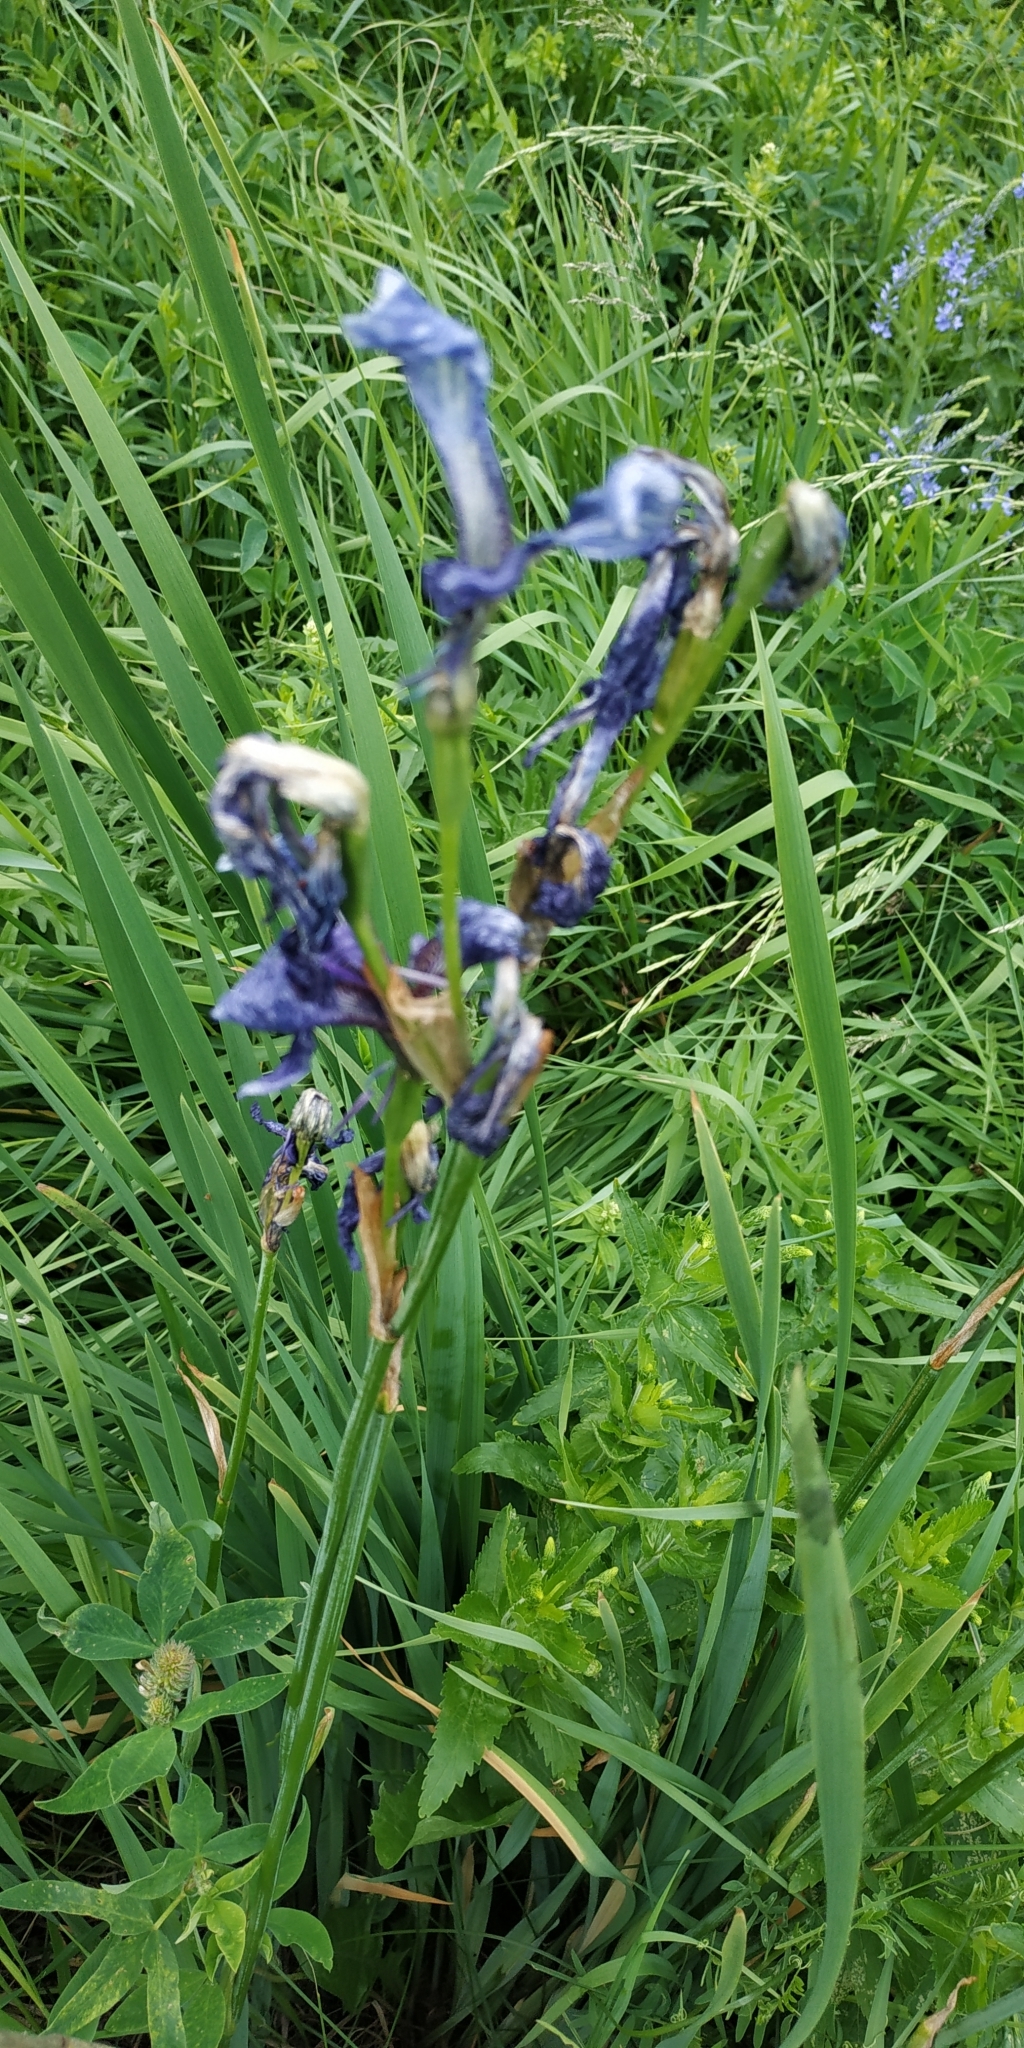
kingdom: Plantae
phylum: Tracheophyta
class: Liliopsida
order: Asparagales
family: Iridaceae
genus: Iris
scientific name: Iris sibirica
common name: Siberian iris
